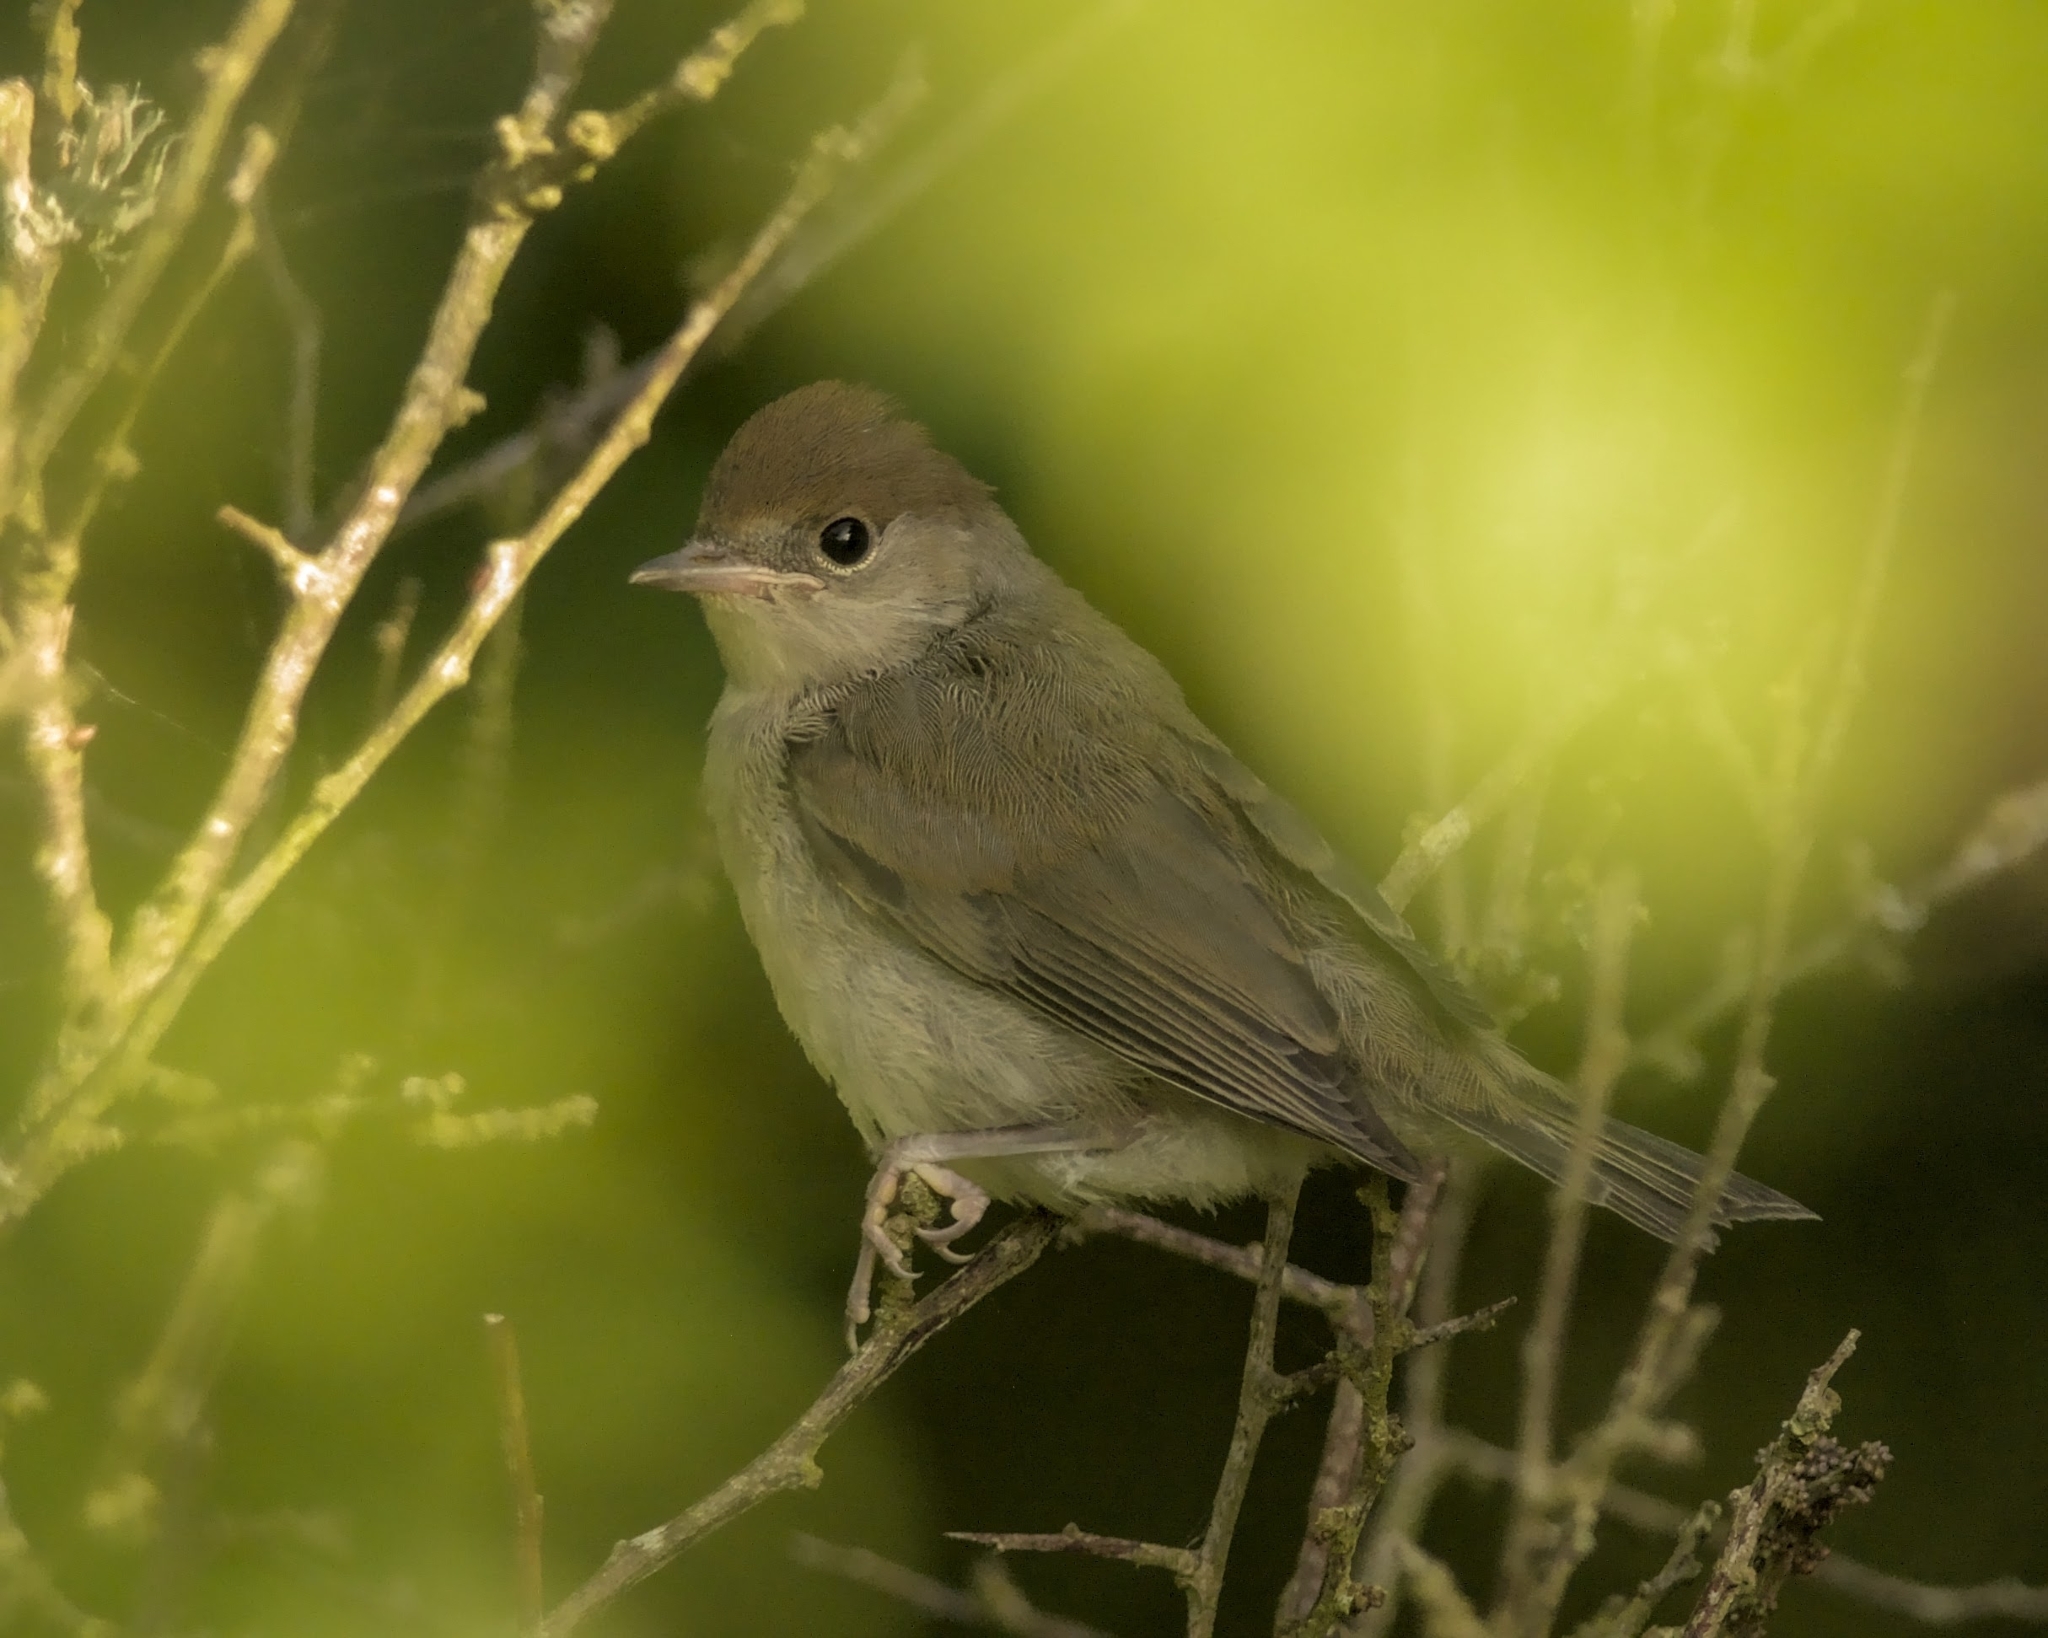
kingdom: Animalia
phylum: Chordata
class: Aves
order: Passeriformes
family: Sylviidae
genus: Sylvia
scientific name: Sylvia atricapilla
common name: Eurasian blackcap
